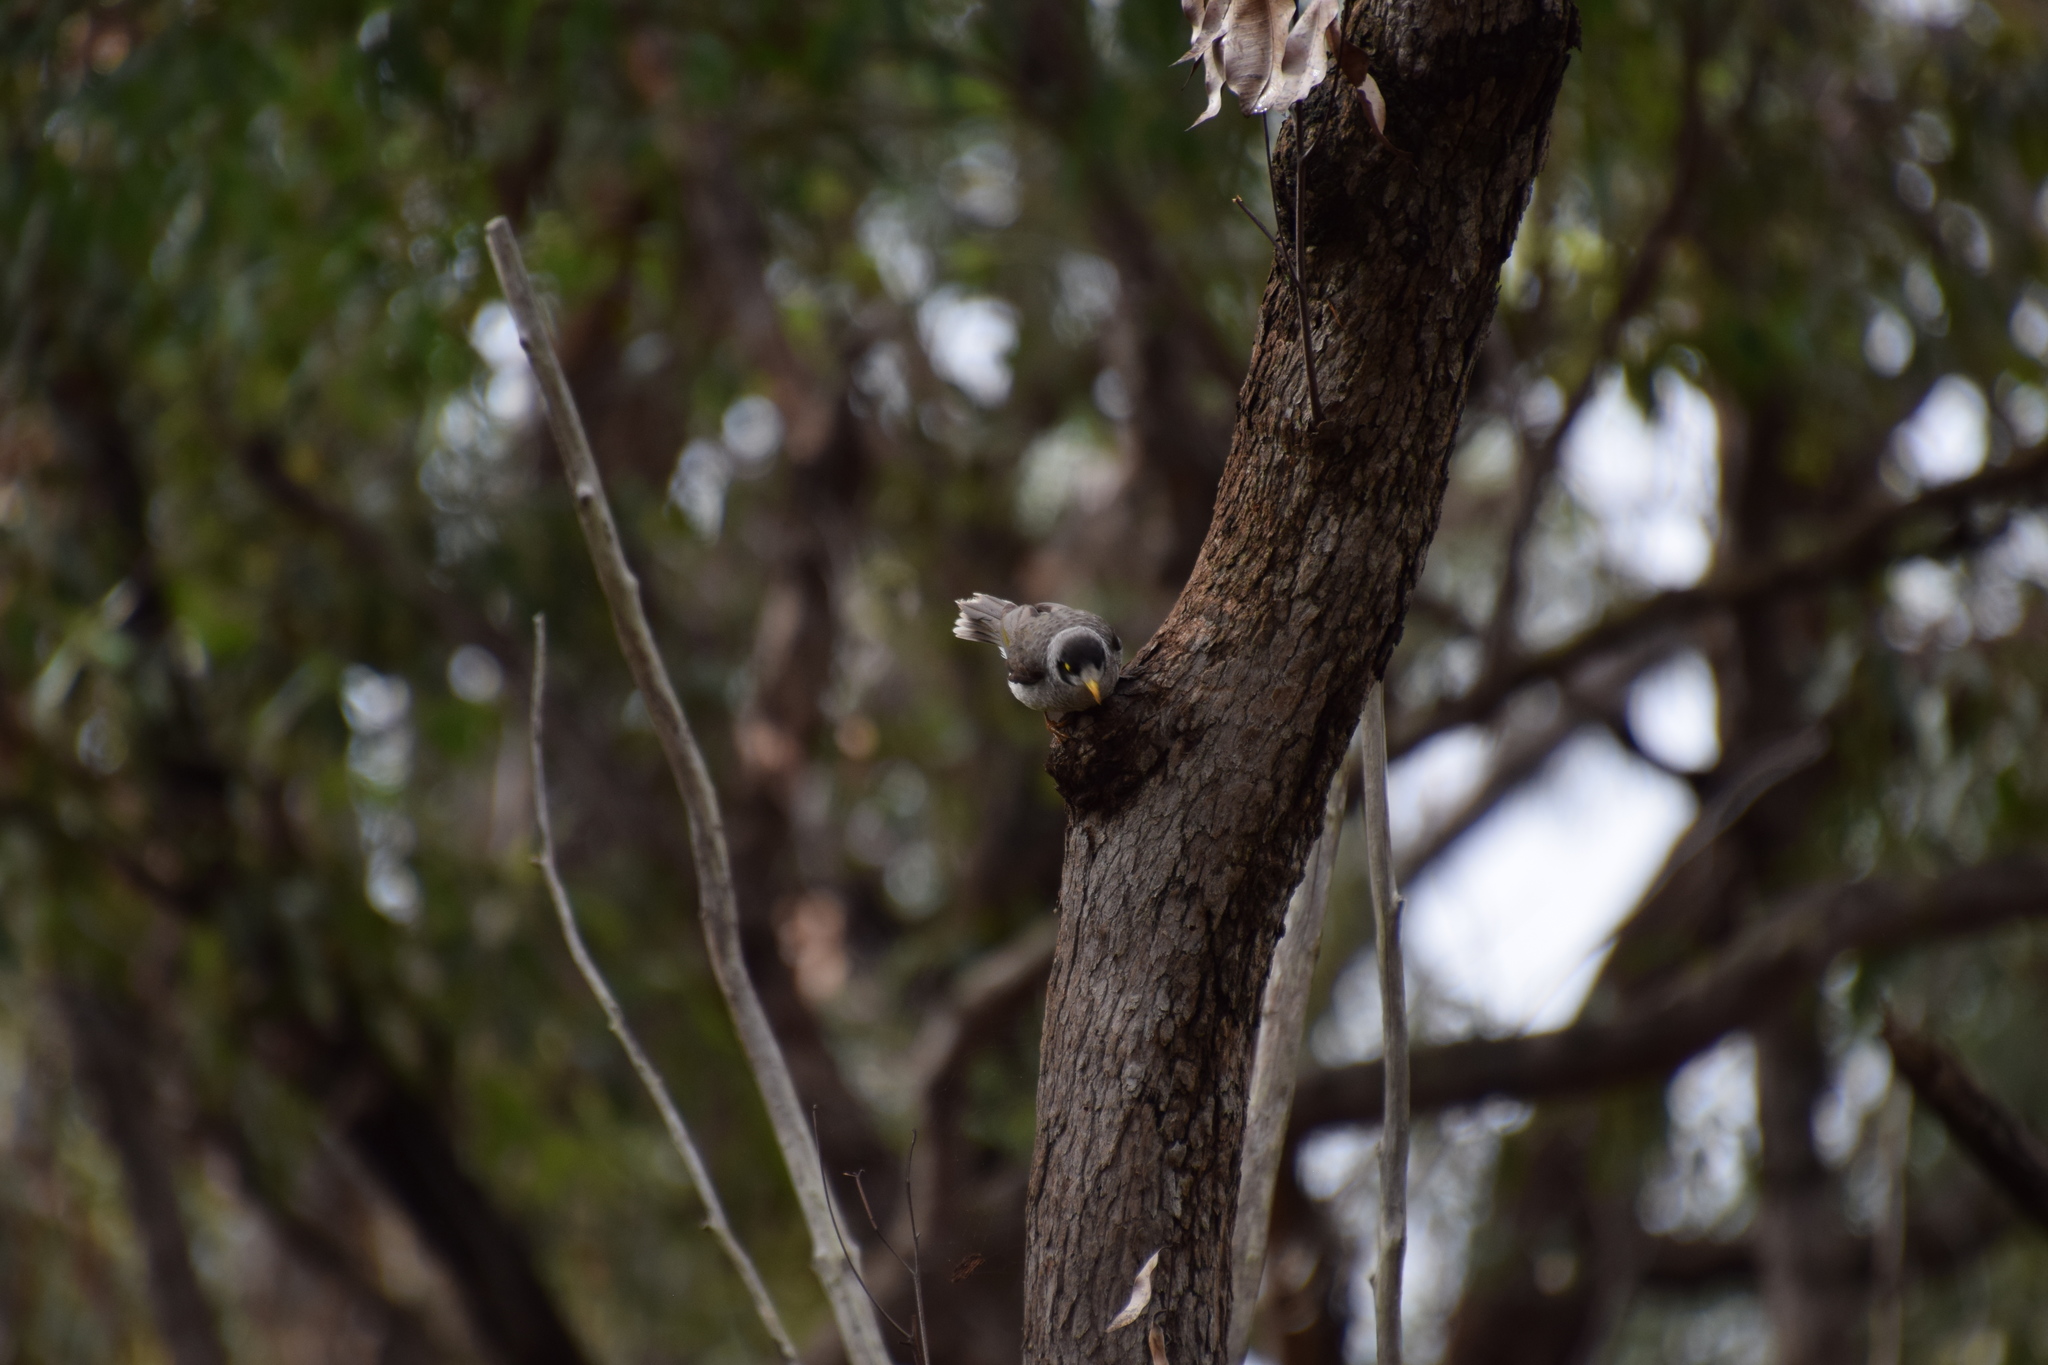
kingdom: Animalia
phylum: Chordata
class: Aves
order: Passeriformes
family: Meliphagidae
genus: Manorina
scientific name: Manorina melanocephala
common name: Noisy miner
